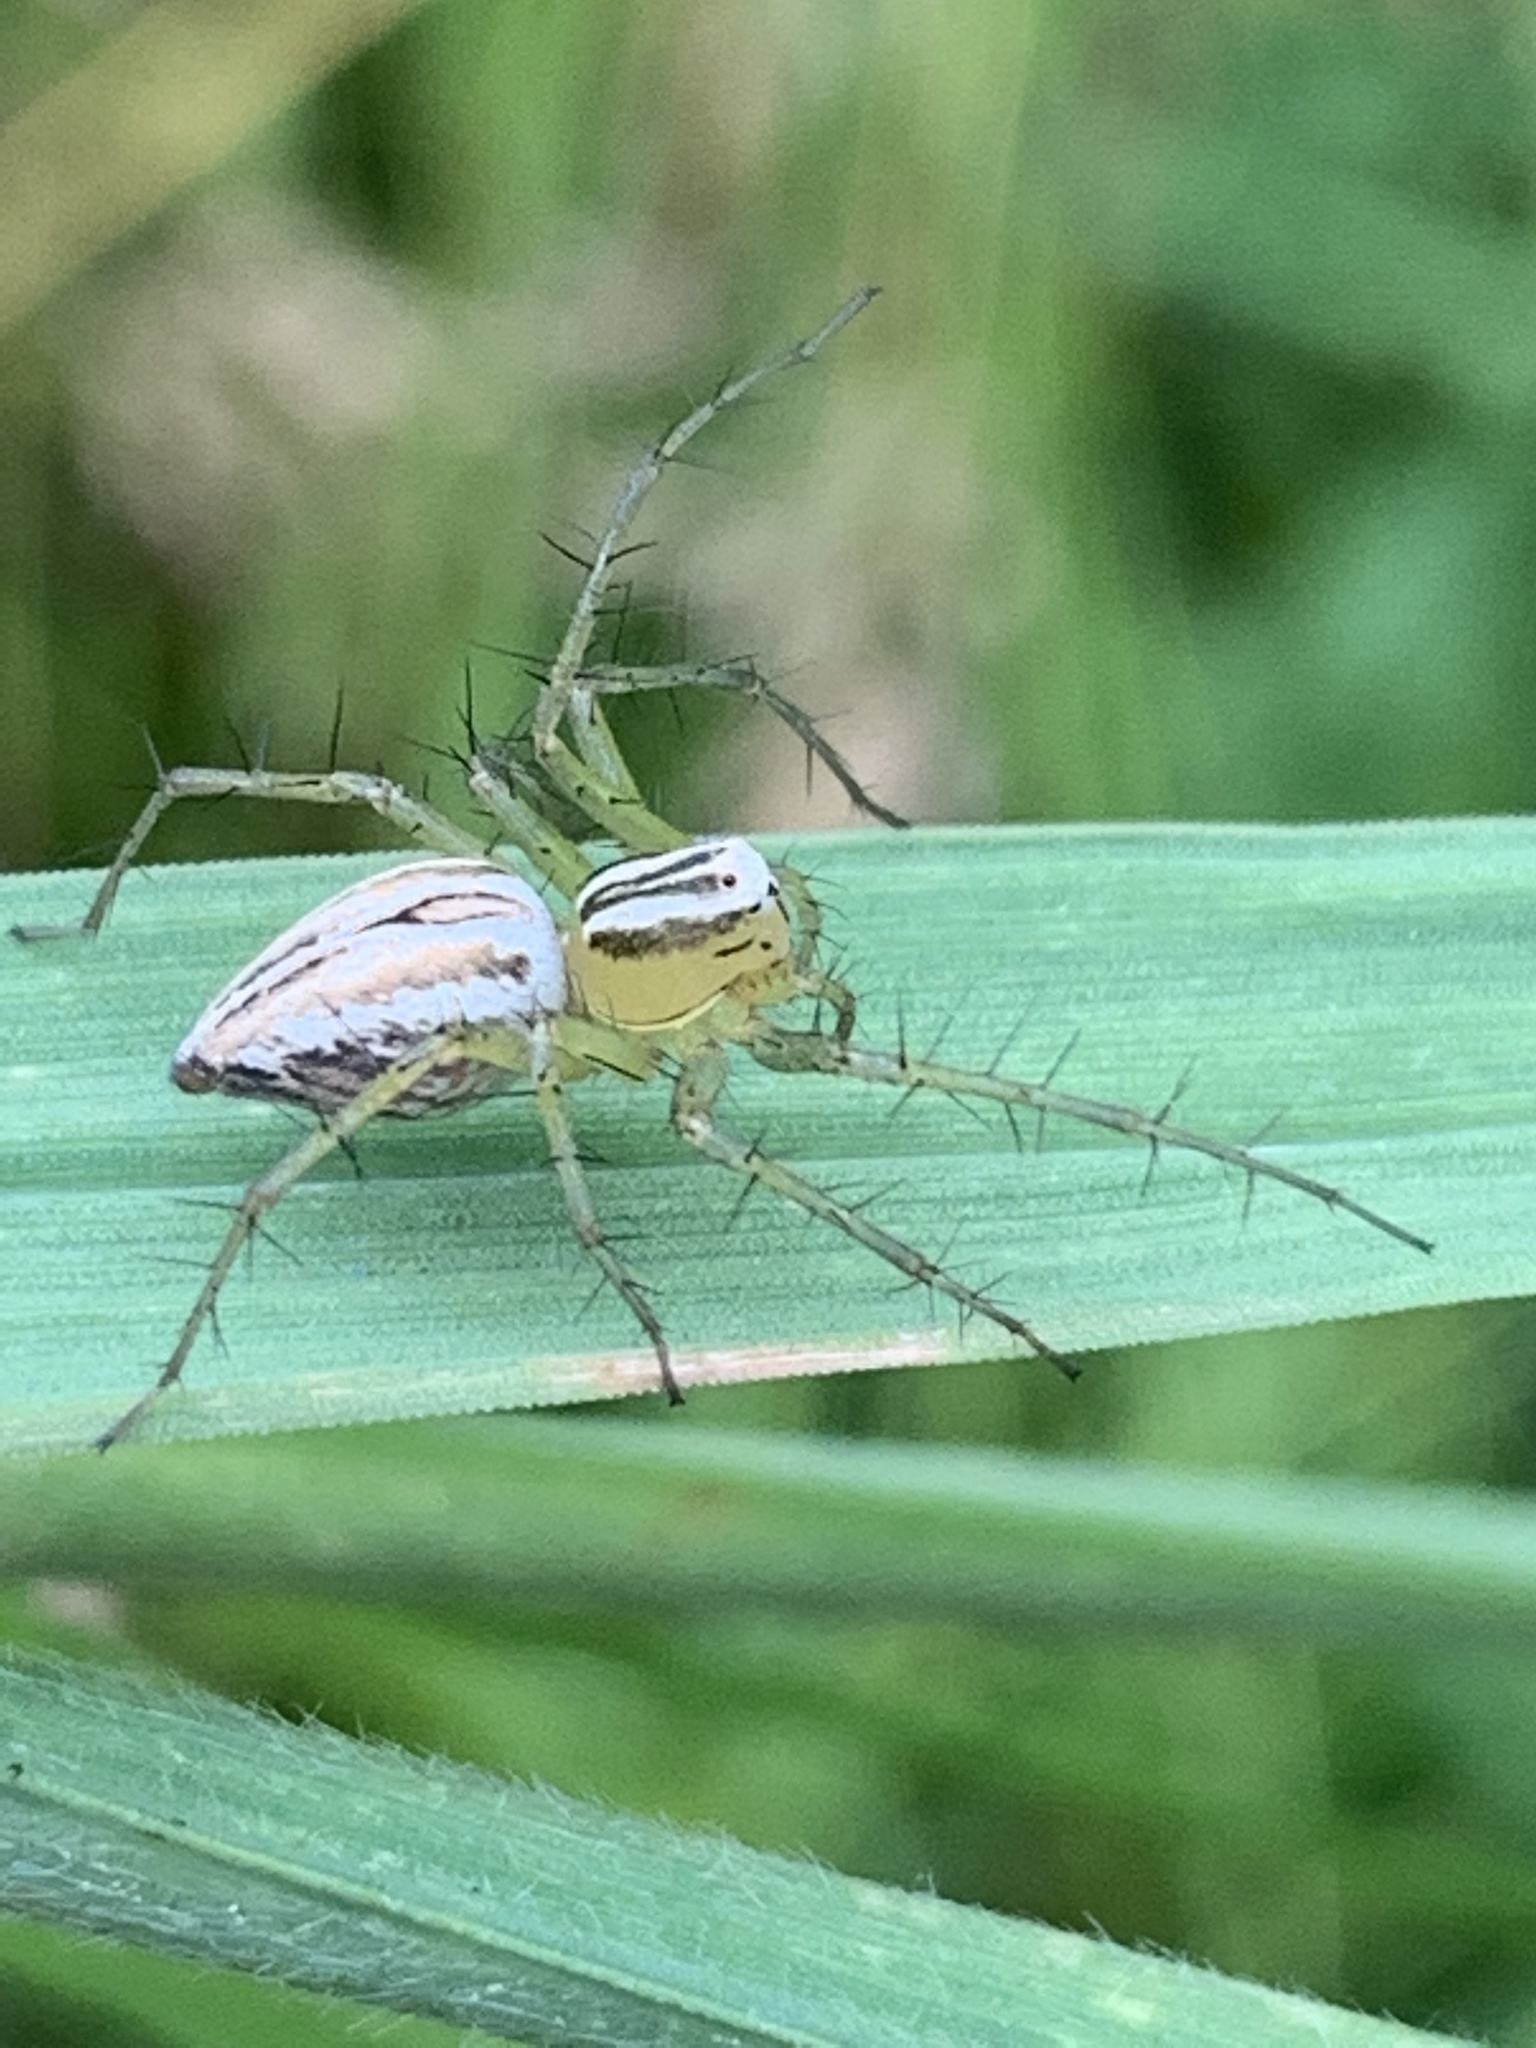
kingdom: Animalia
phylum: Arthropoda
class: Arachnida
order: Araneae
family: Oxyopidae
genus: Oxyopes
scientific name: Oxyopes salticus
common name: Lynx spiders
